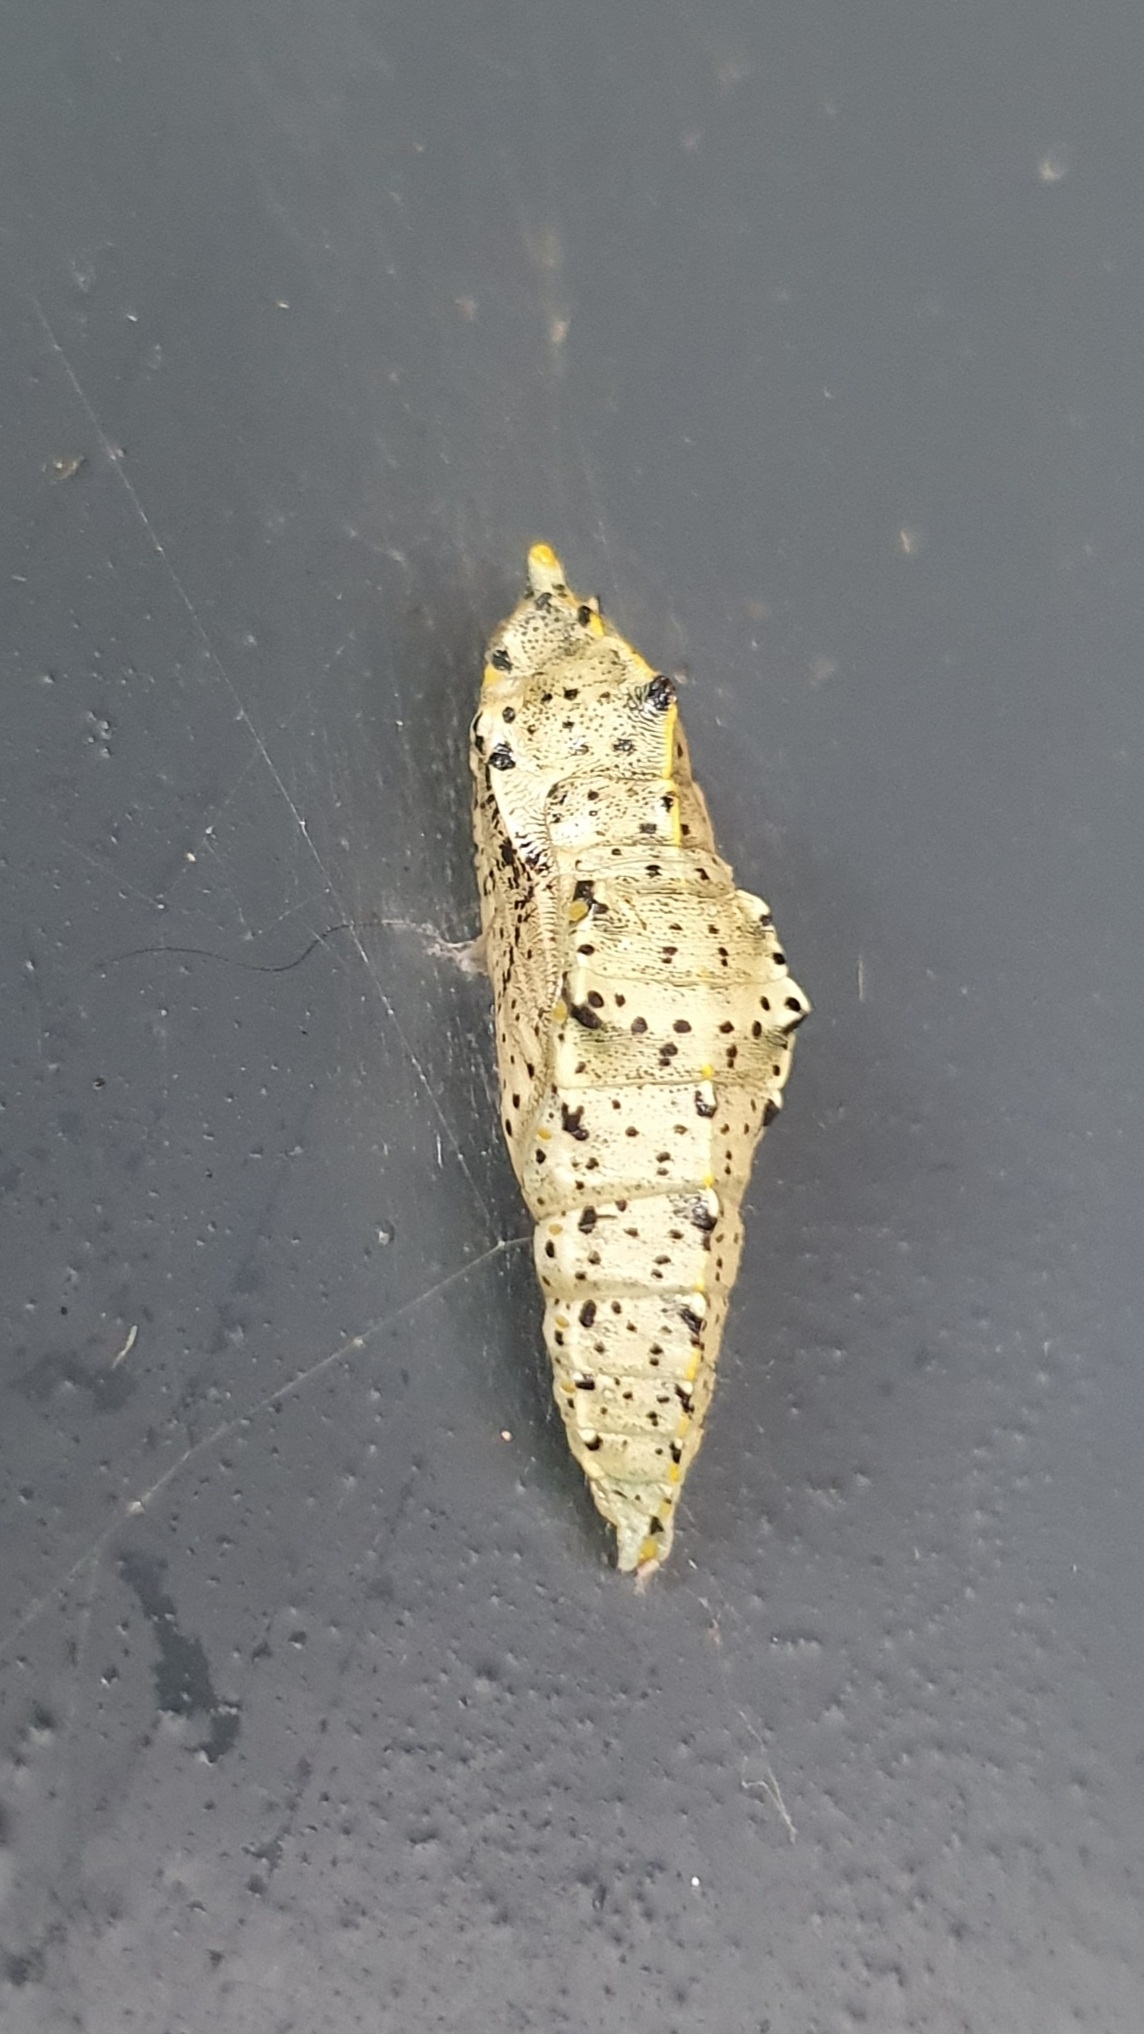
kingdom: Animalia
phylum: Arthropoda
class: Insecta
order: Lepidoptera
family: Pieridae
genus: Pieris
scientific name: Pieris brassicae
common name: Large white
